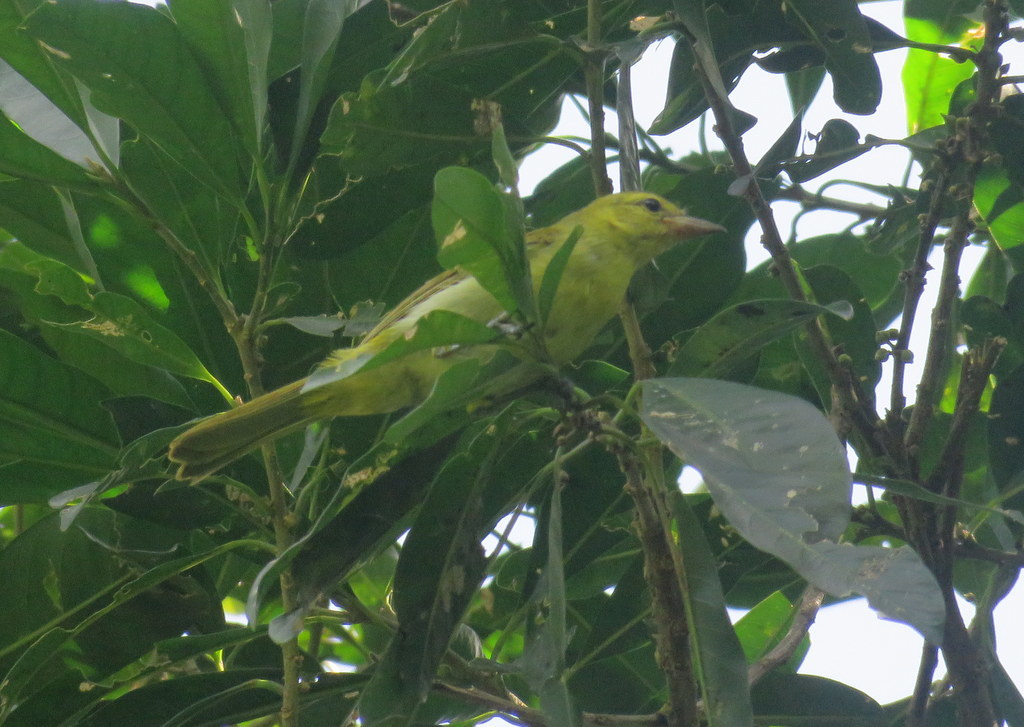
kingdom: Animalia
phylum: Chordata
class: Aves
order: Passeriformes
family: Thraupidae
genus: Hemithraupis
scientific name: Hemithraupis guira
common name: Guira tanager
